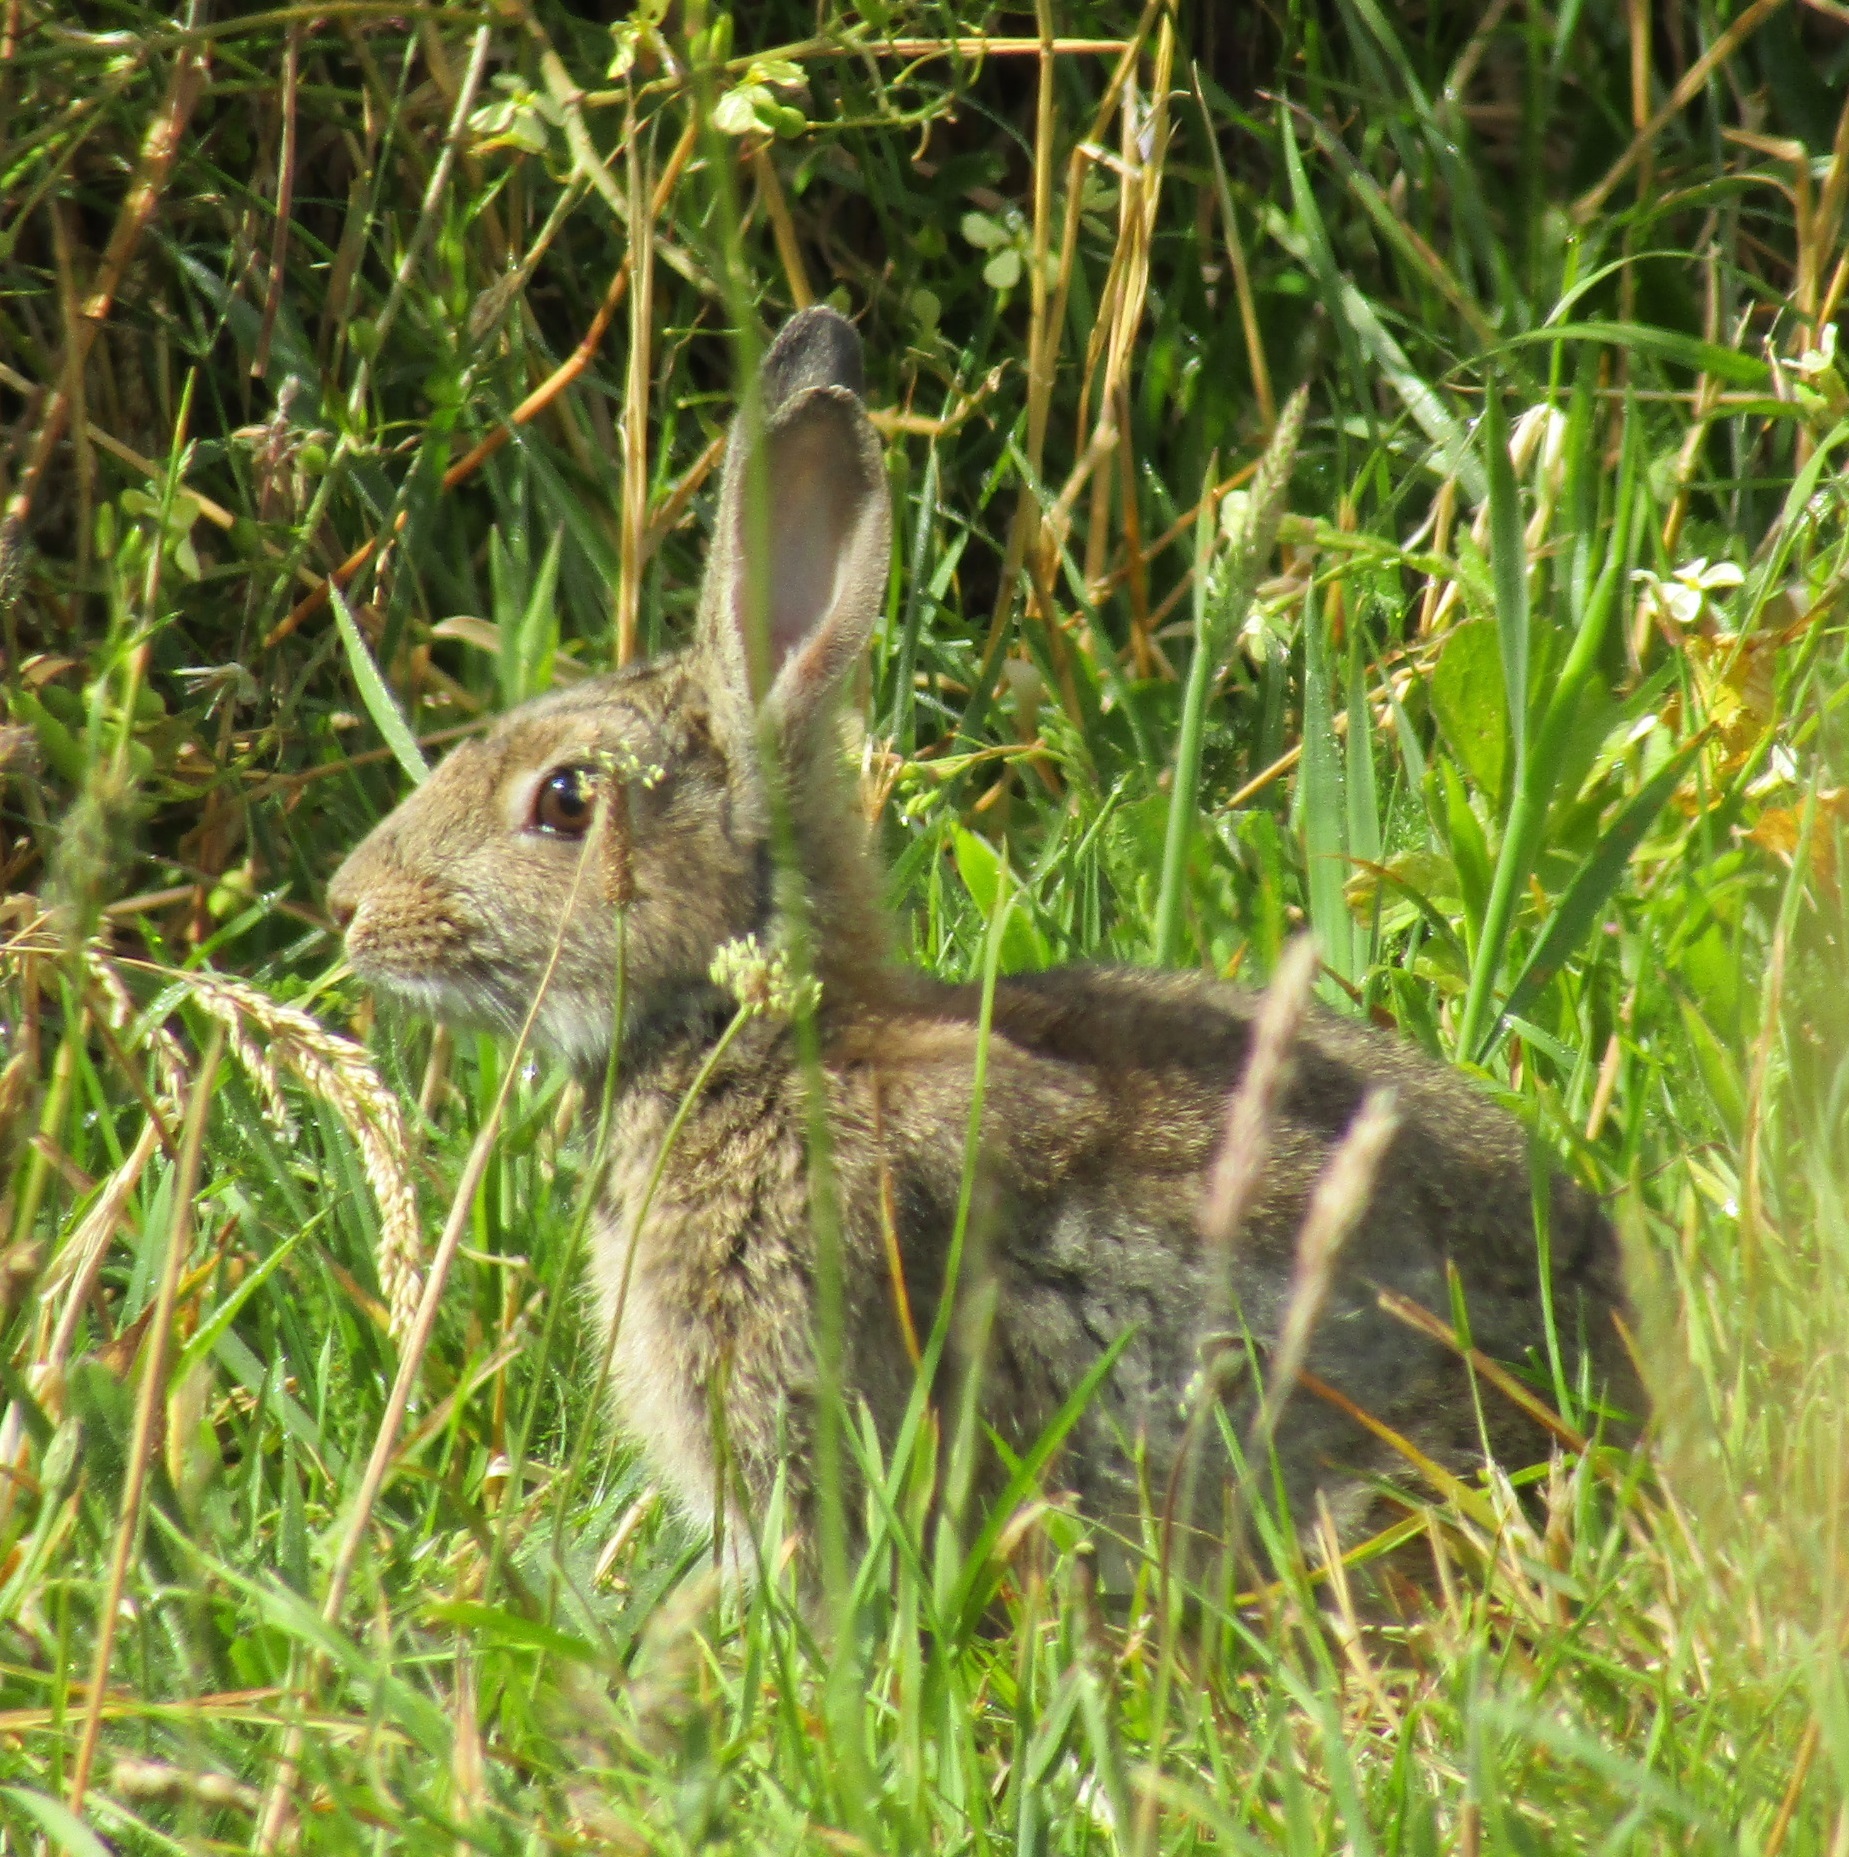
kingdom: Animalia
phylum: Chordata
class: Mammalia
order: Lagomorpha
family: Leporidae
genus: Oryctolagus
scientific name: Oryctolagus cuniculus
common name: European rabbit
